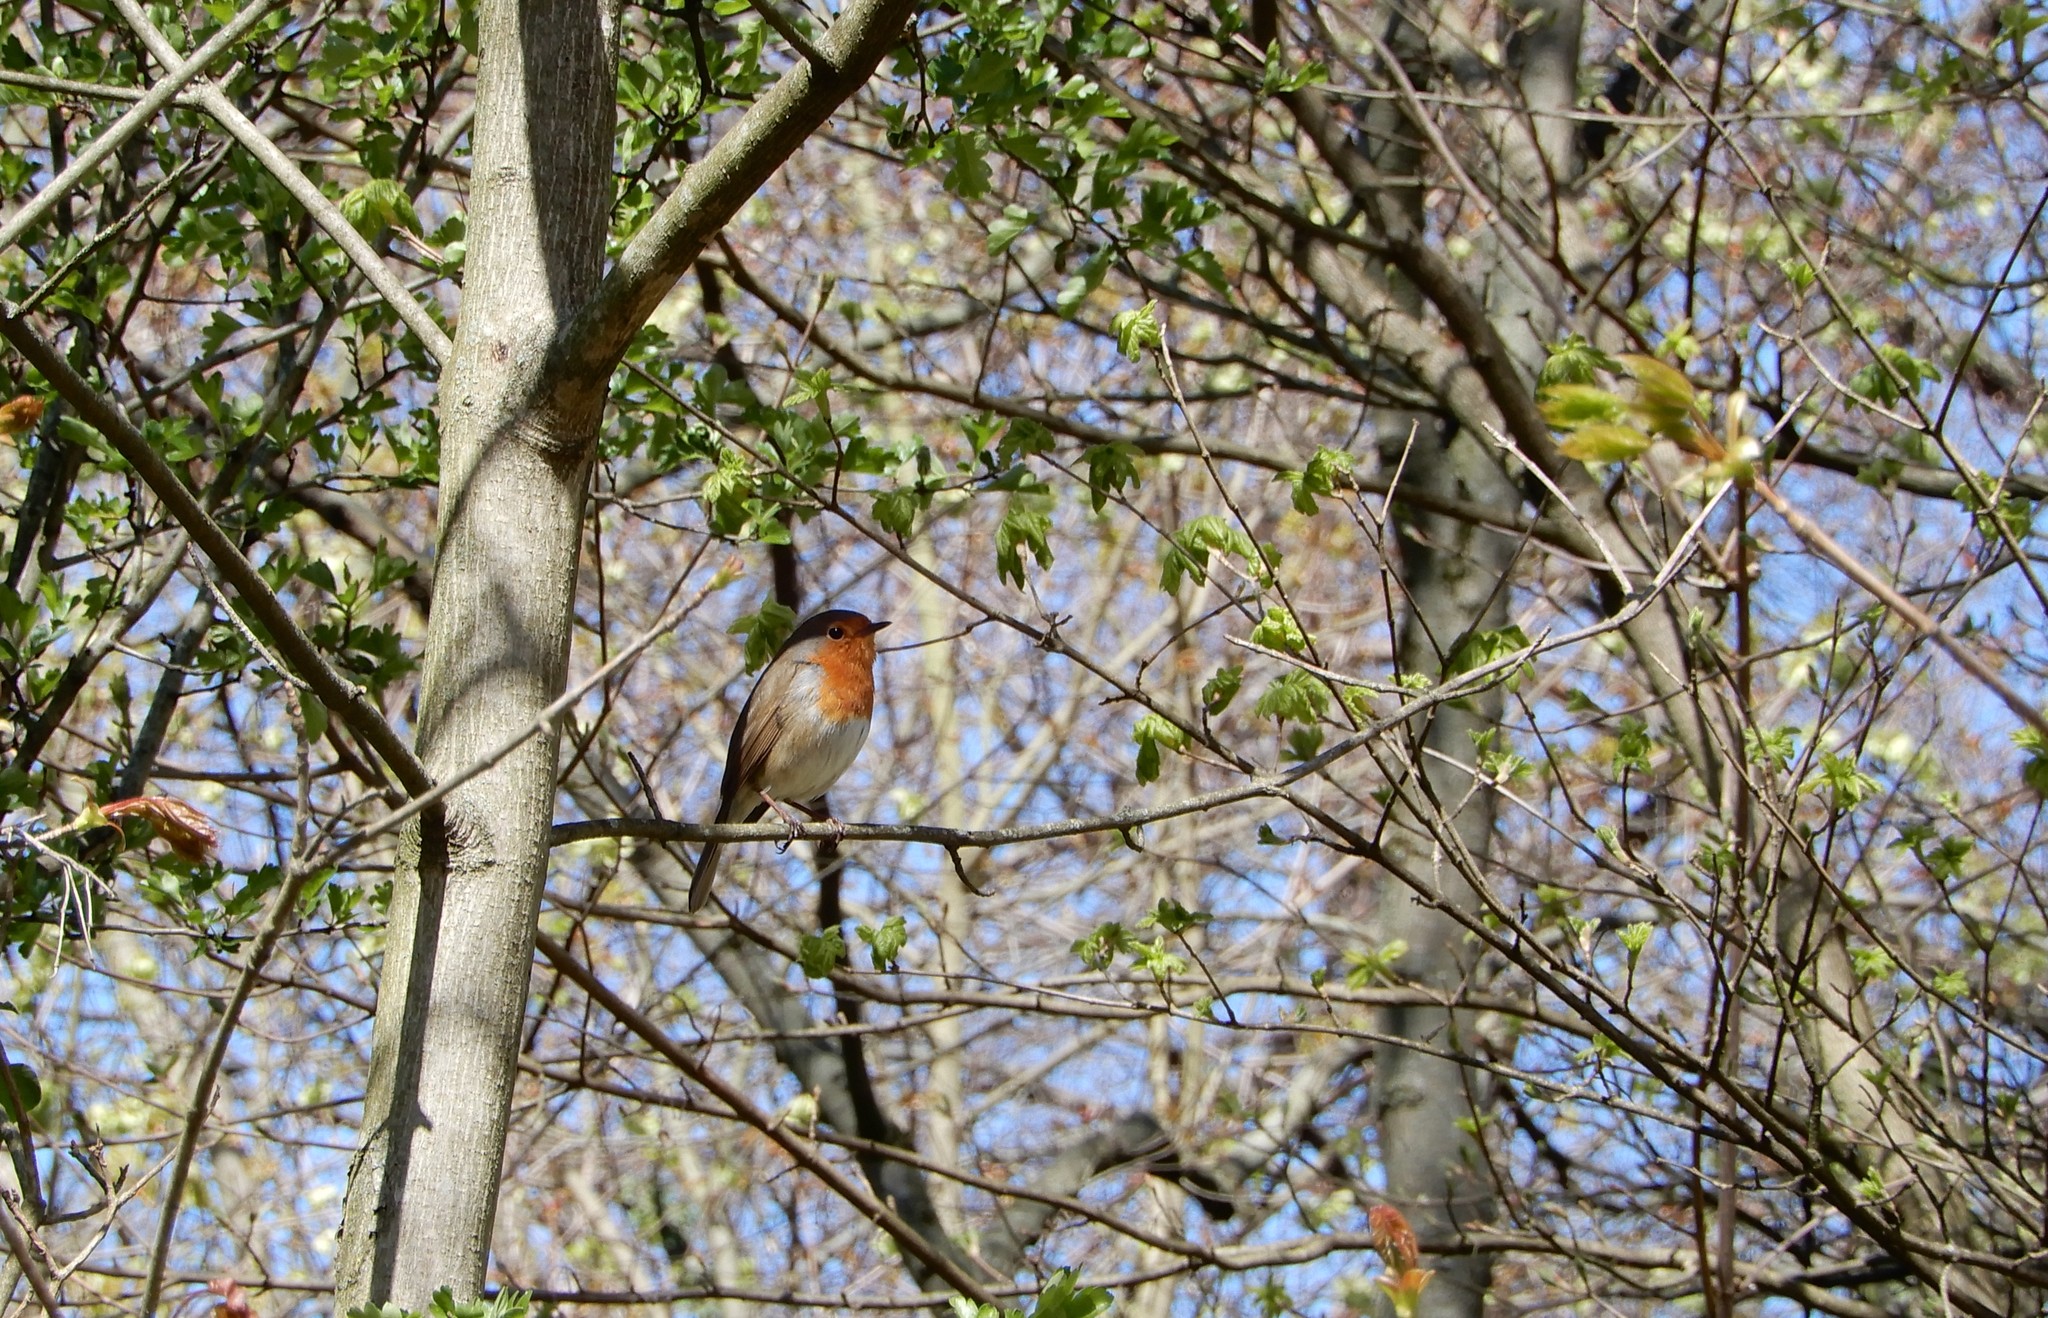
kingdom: Animalia
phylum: Chordata
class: Aves
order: Passeriformes
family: Muscicapidae
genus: Erithacus
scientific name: Erithacus rubecula
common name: European robin
